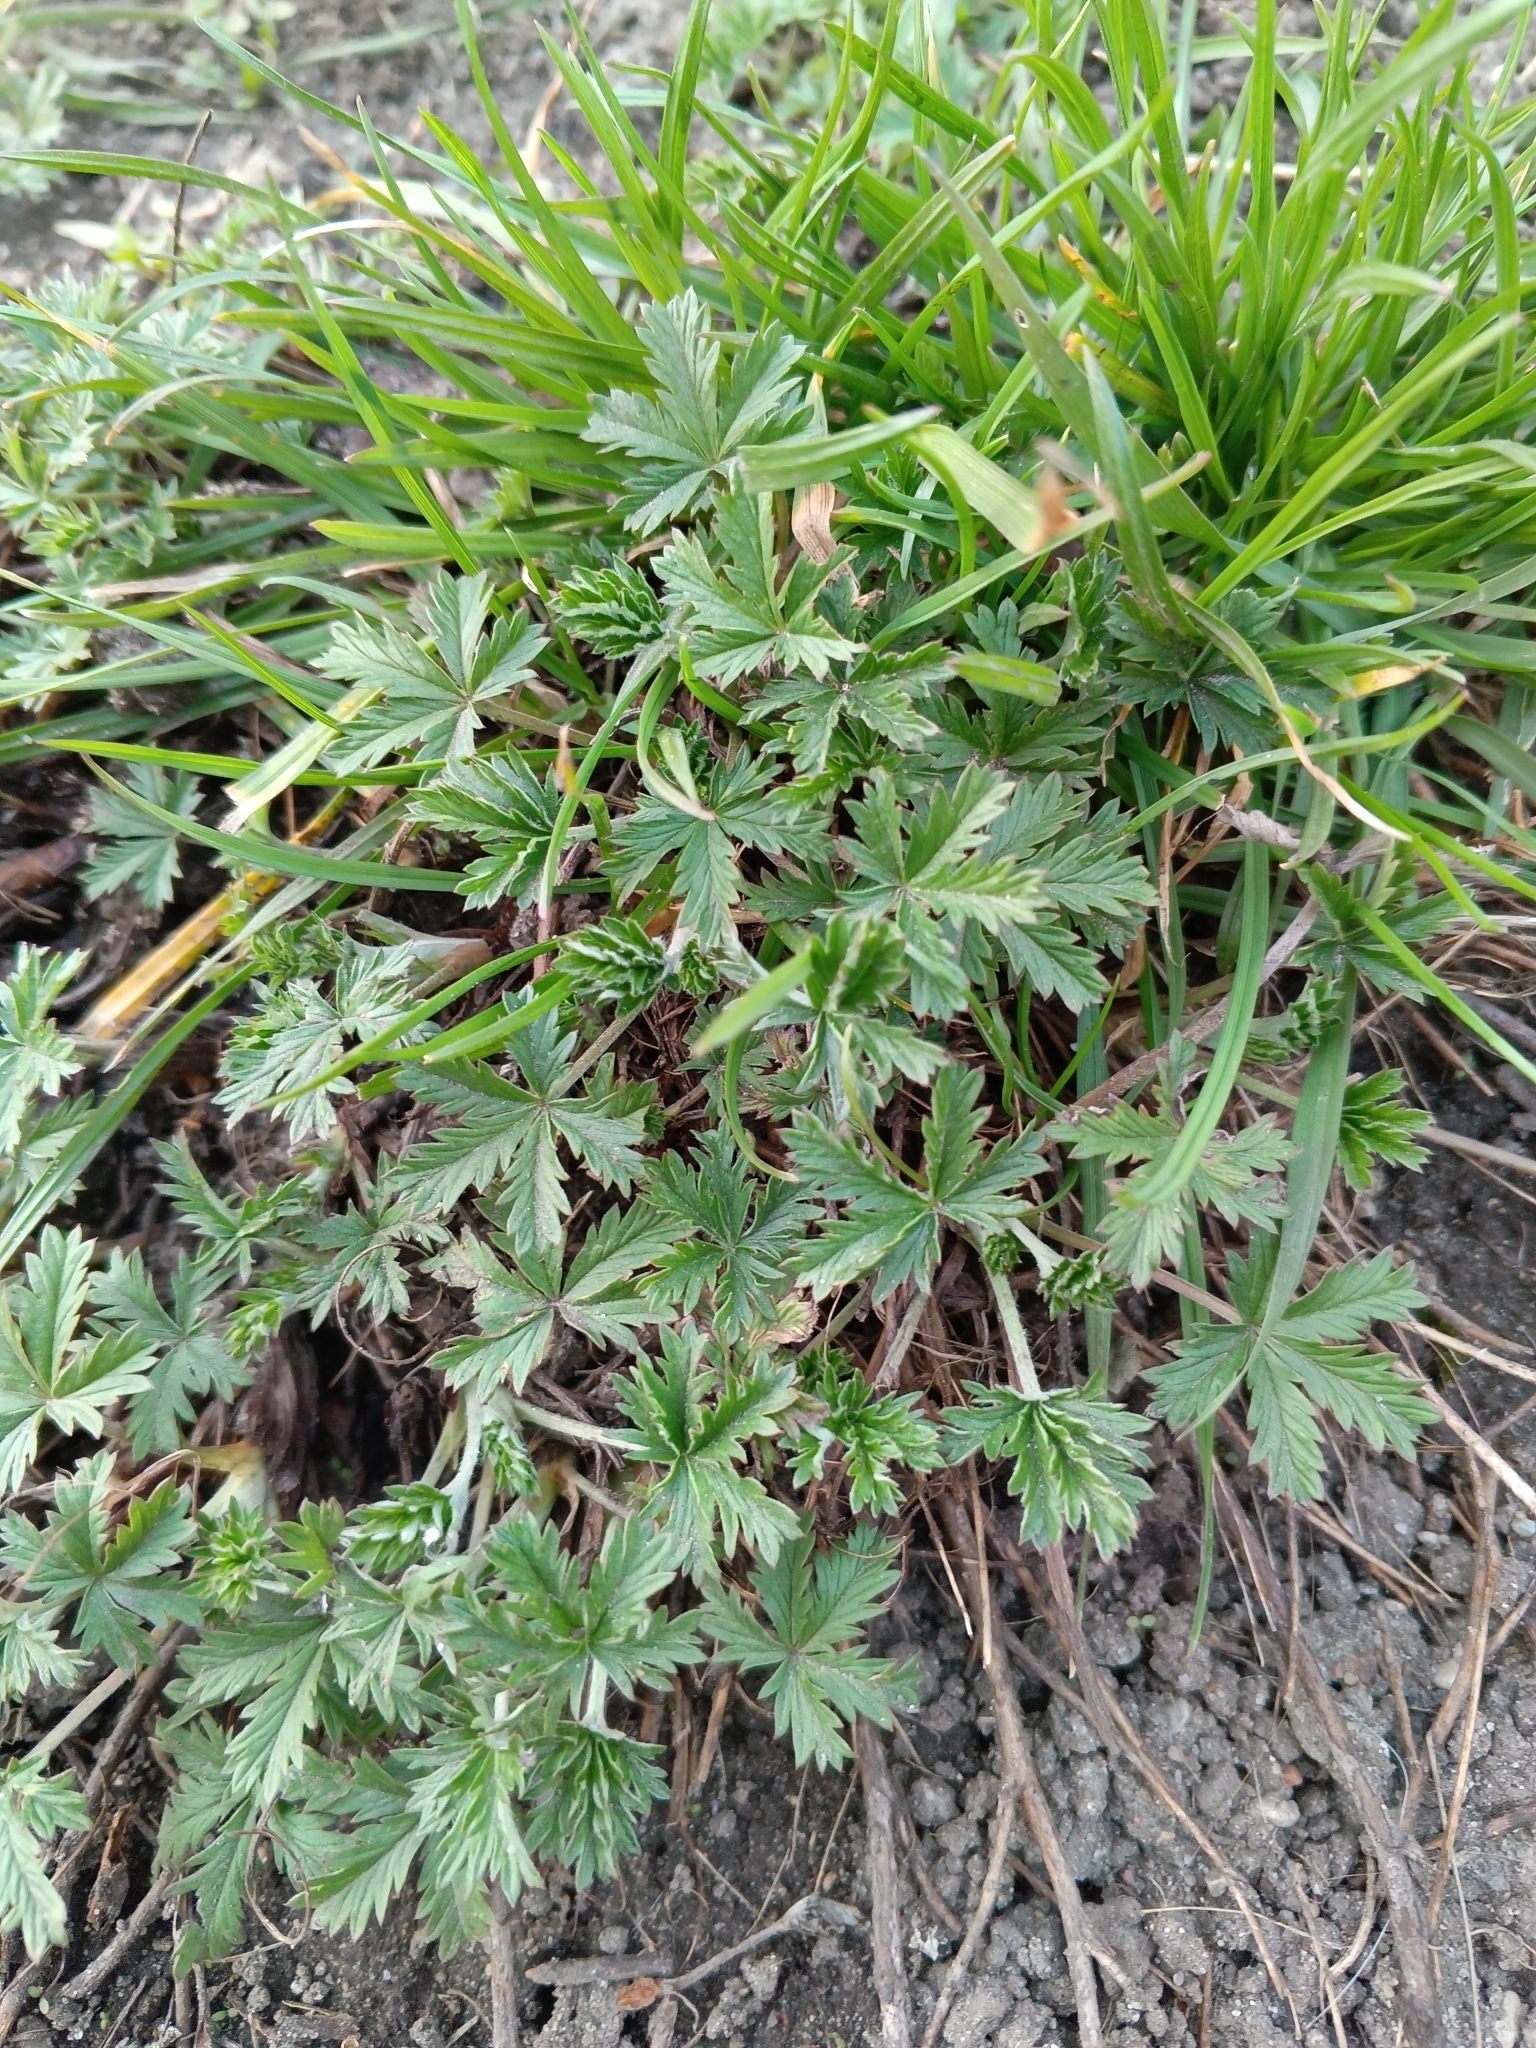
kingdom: Plantae
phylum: Tracheophyta
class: Magnoliopsida
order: Rosales
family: Rosaceae
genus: Potentilla
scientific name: Potentilla argentea
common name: Hoary cinquefoil
